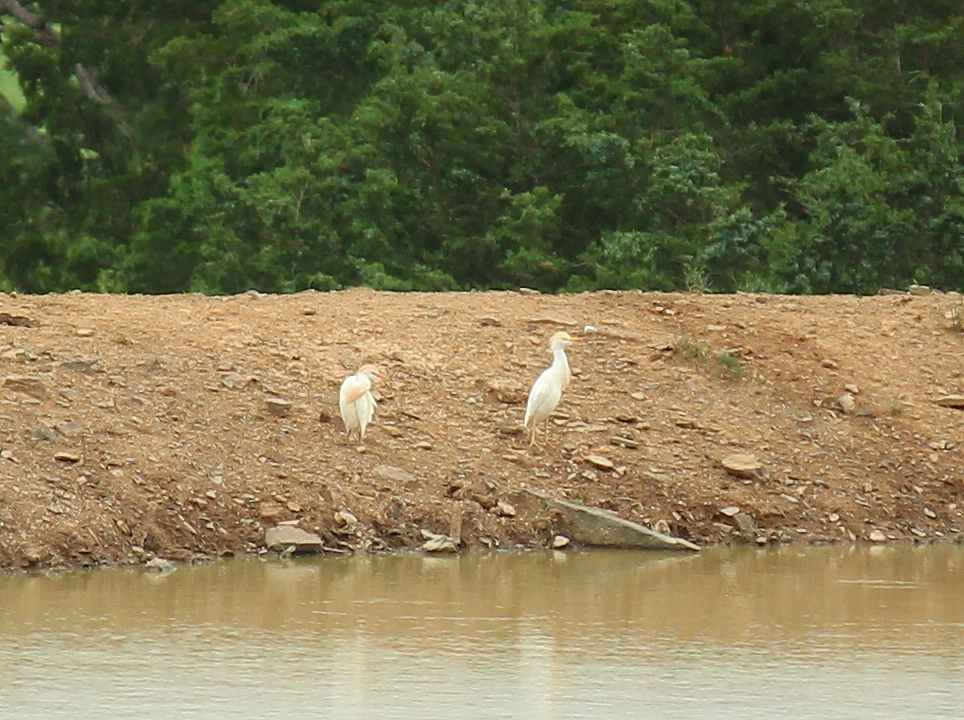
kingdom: Animalia
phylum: Chordata
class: Aves
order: Pelecaniformes
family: Ardeidae
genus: Bubulcus
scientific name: Bubulcus ibis
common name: Cattle egret
